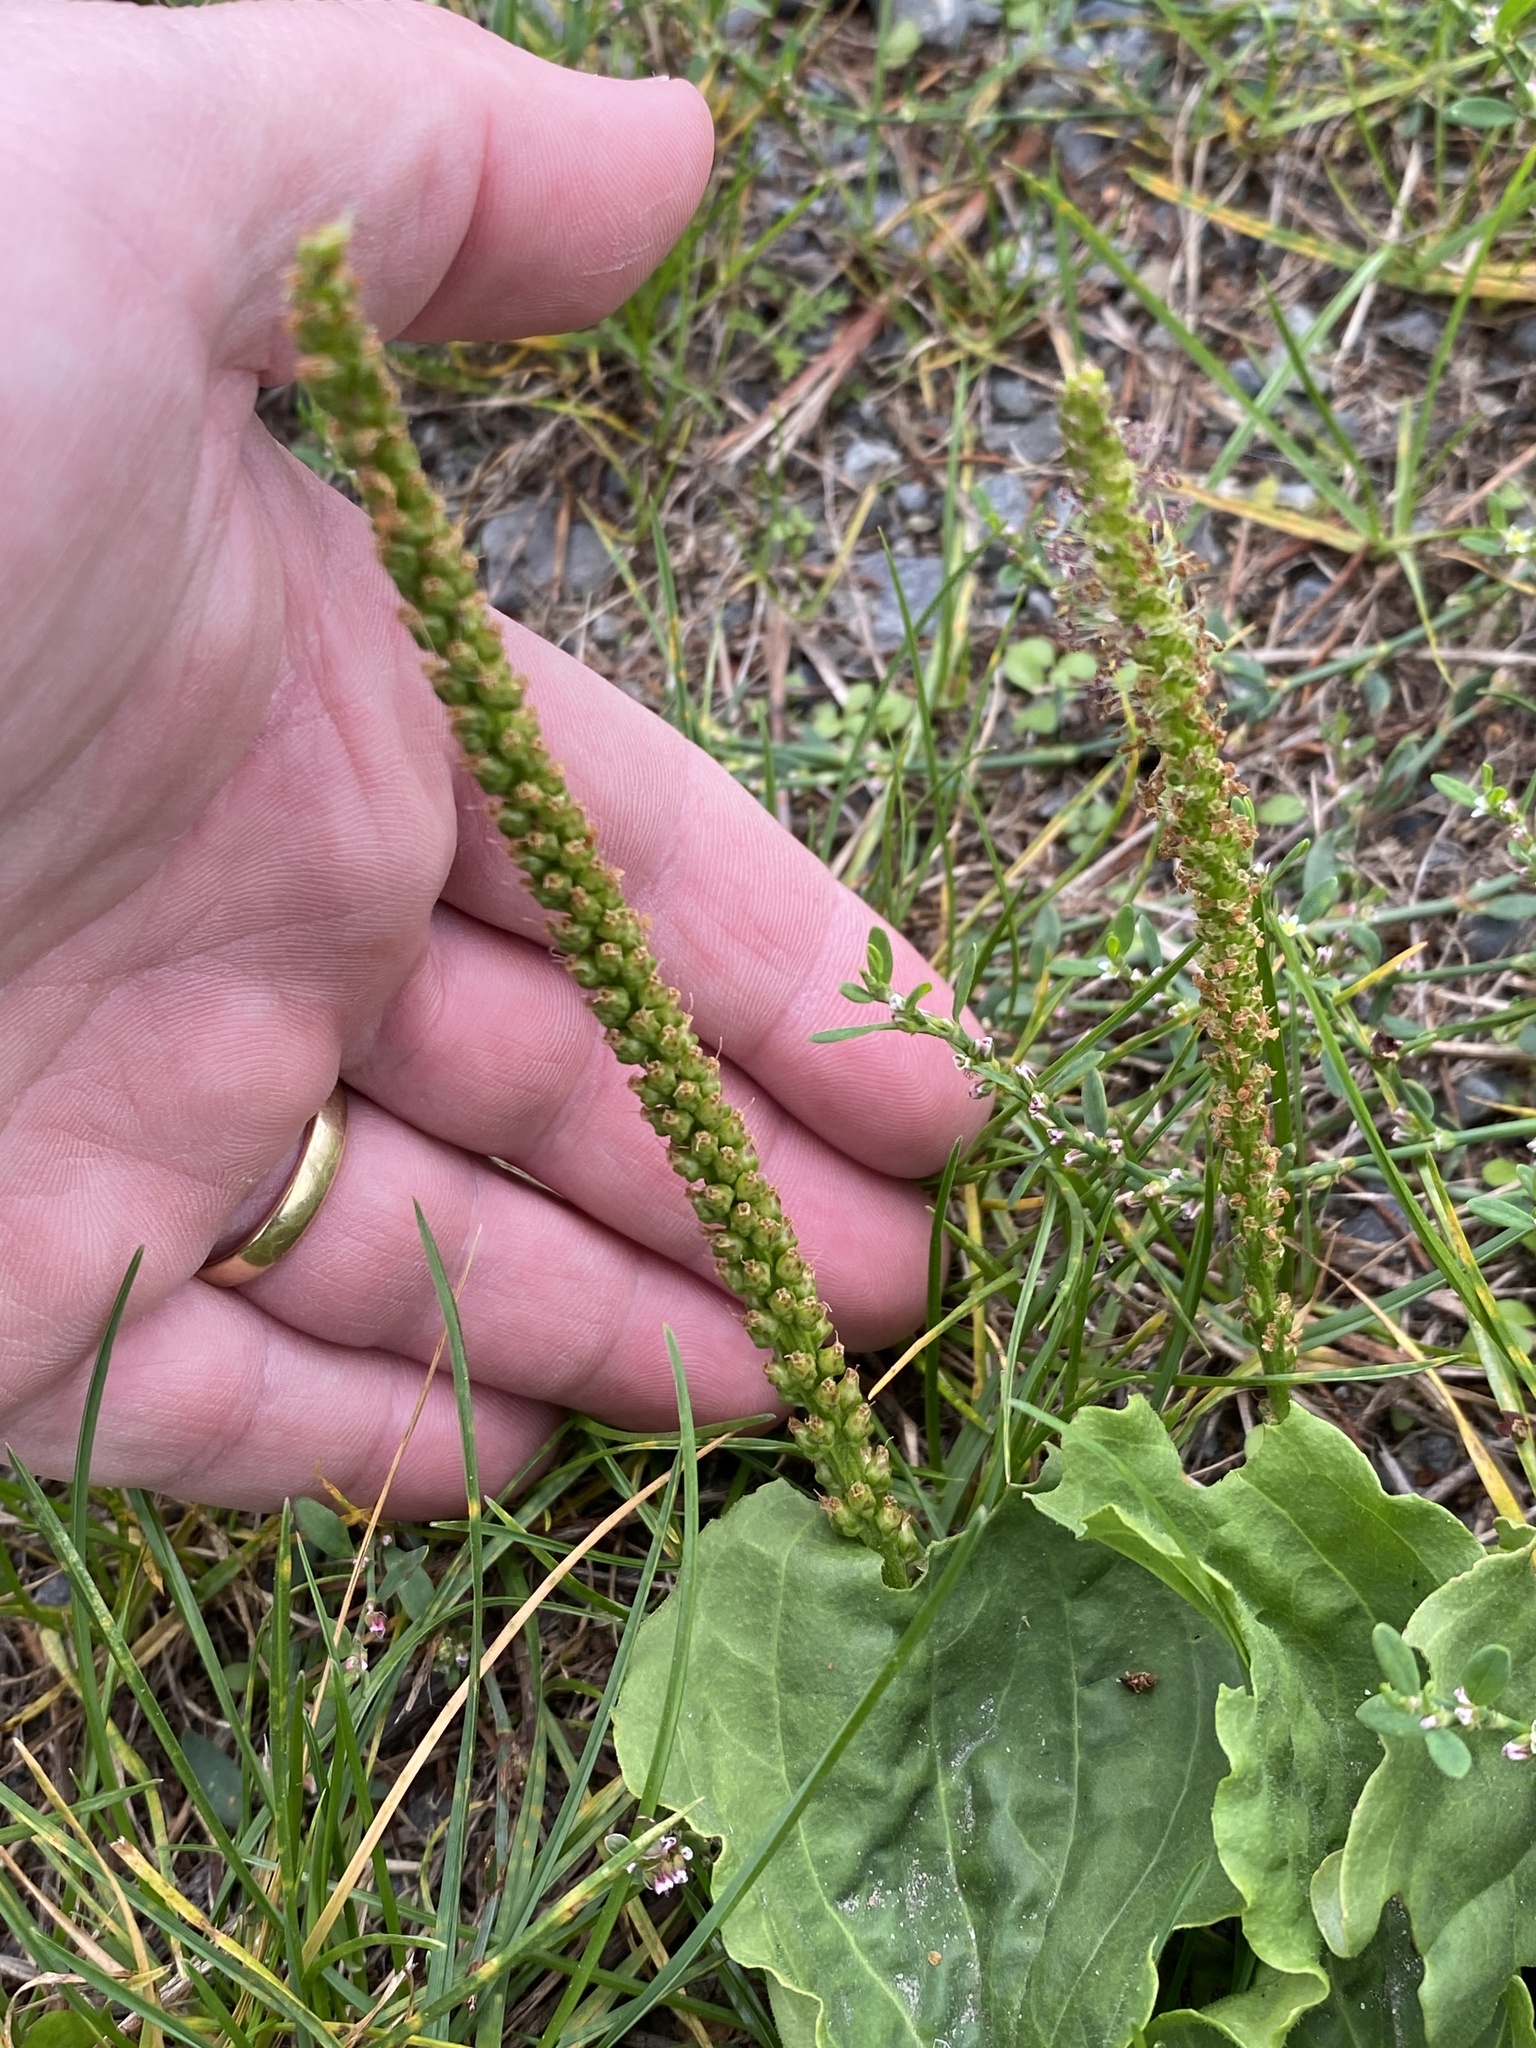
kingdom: Plantae
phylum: Tracheophyta
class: Magnoliopsida
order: Lamiales
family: Plantaginaceae
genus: Plantago
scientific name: Plantago major
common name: Common plantain
